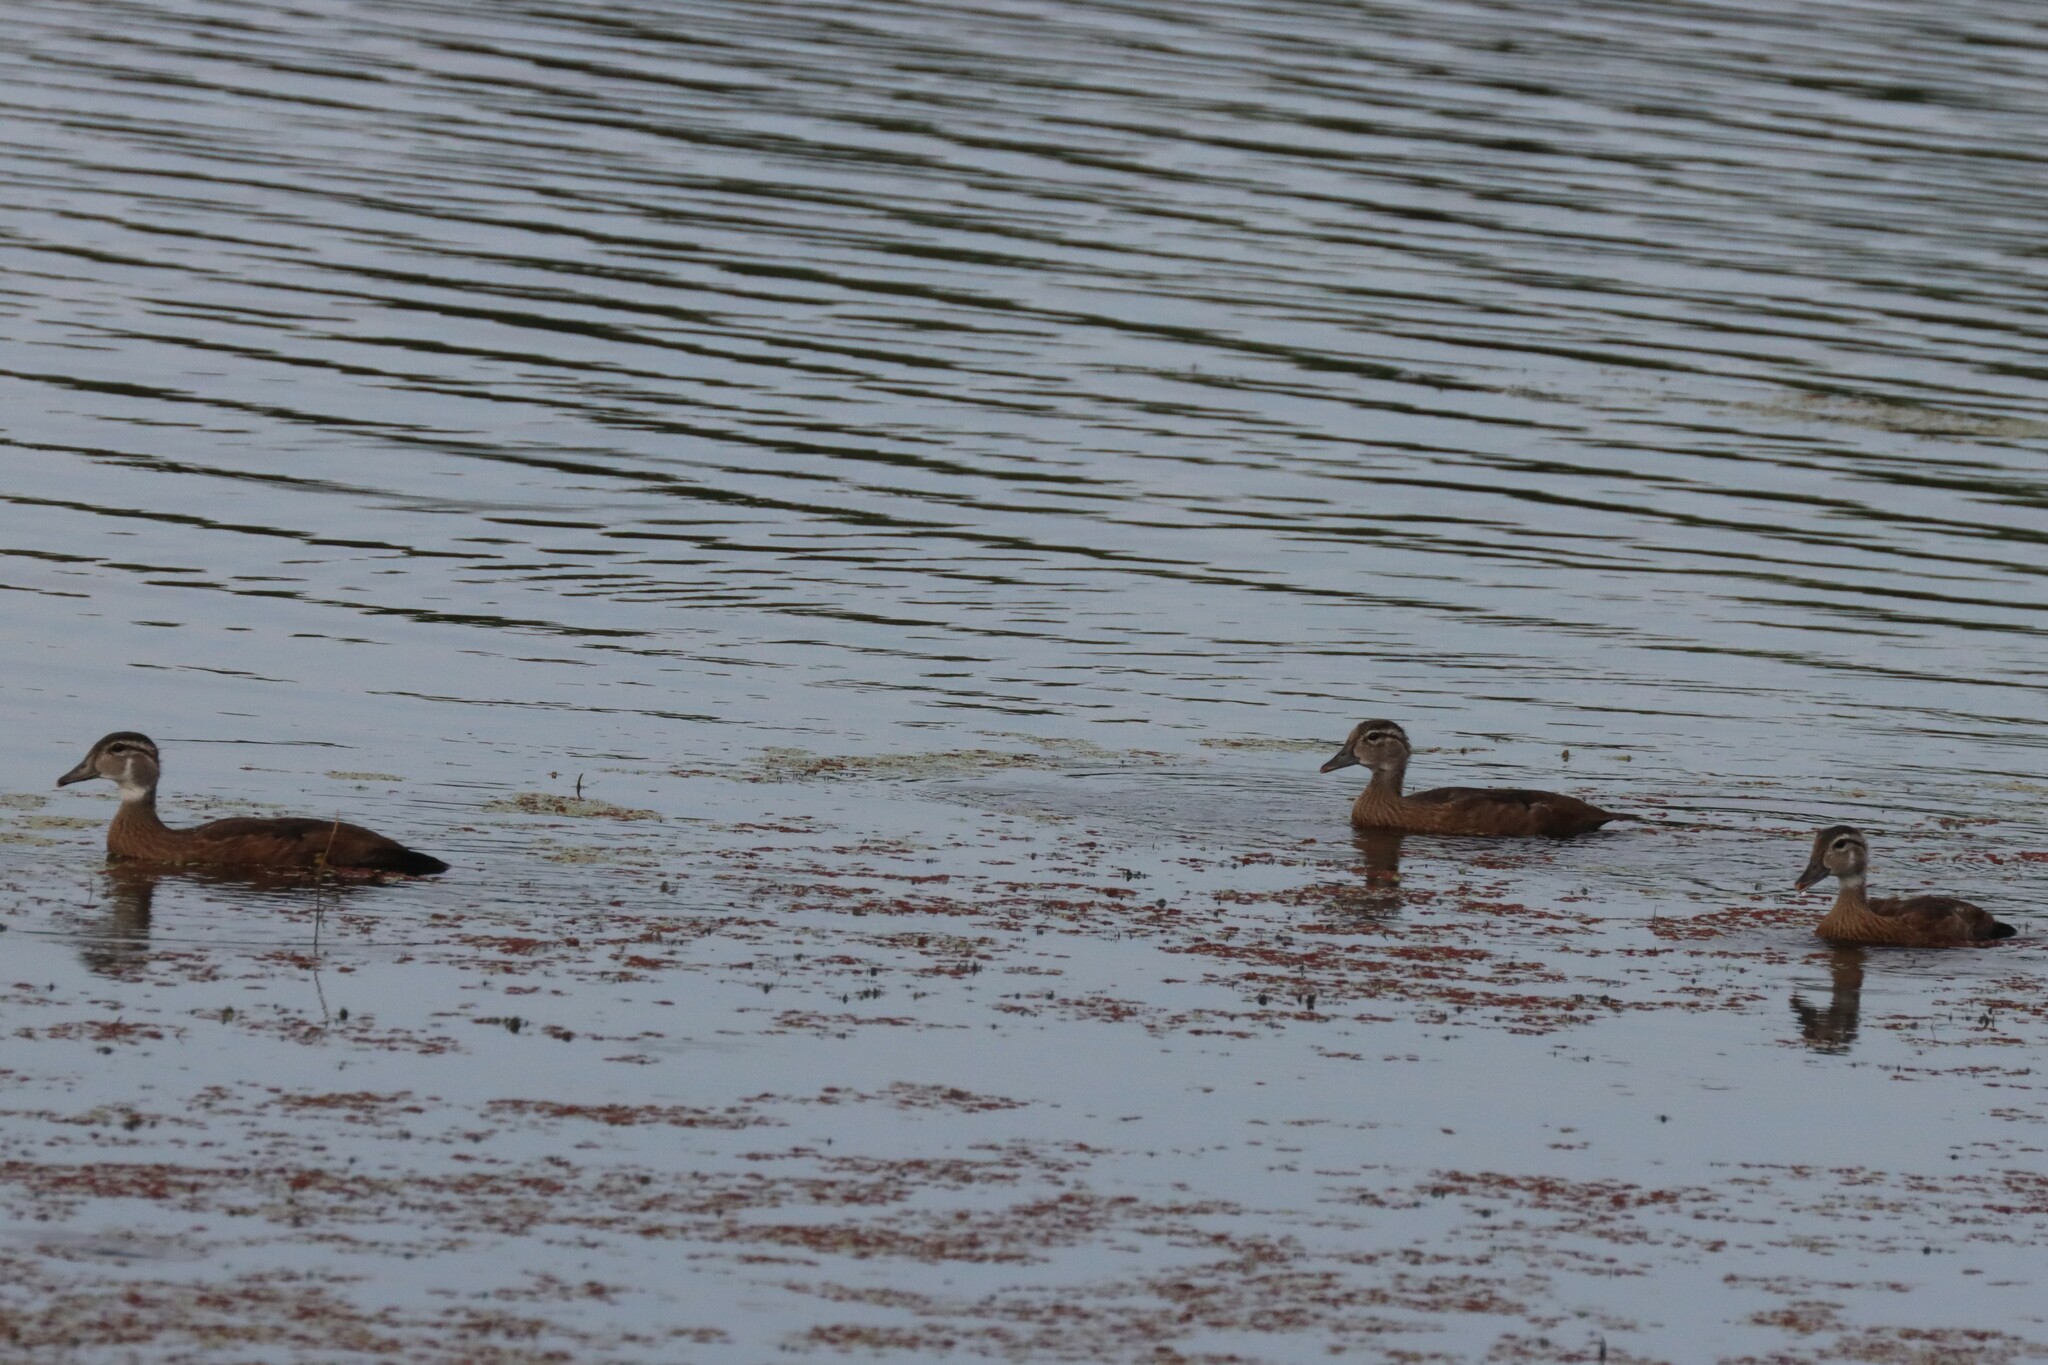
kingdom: Animalia
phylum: Chordata
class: Aves
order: Anseriformes
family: Anatidae
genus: Aix
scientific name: Aix sponsa
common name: Wood duck
